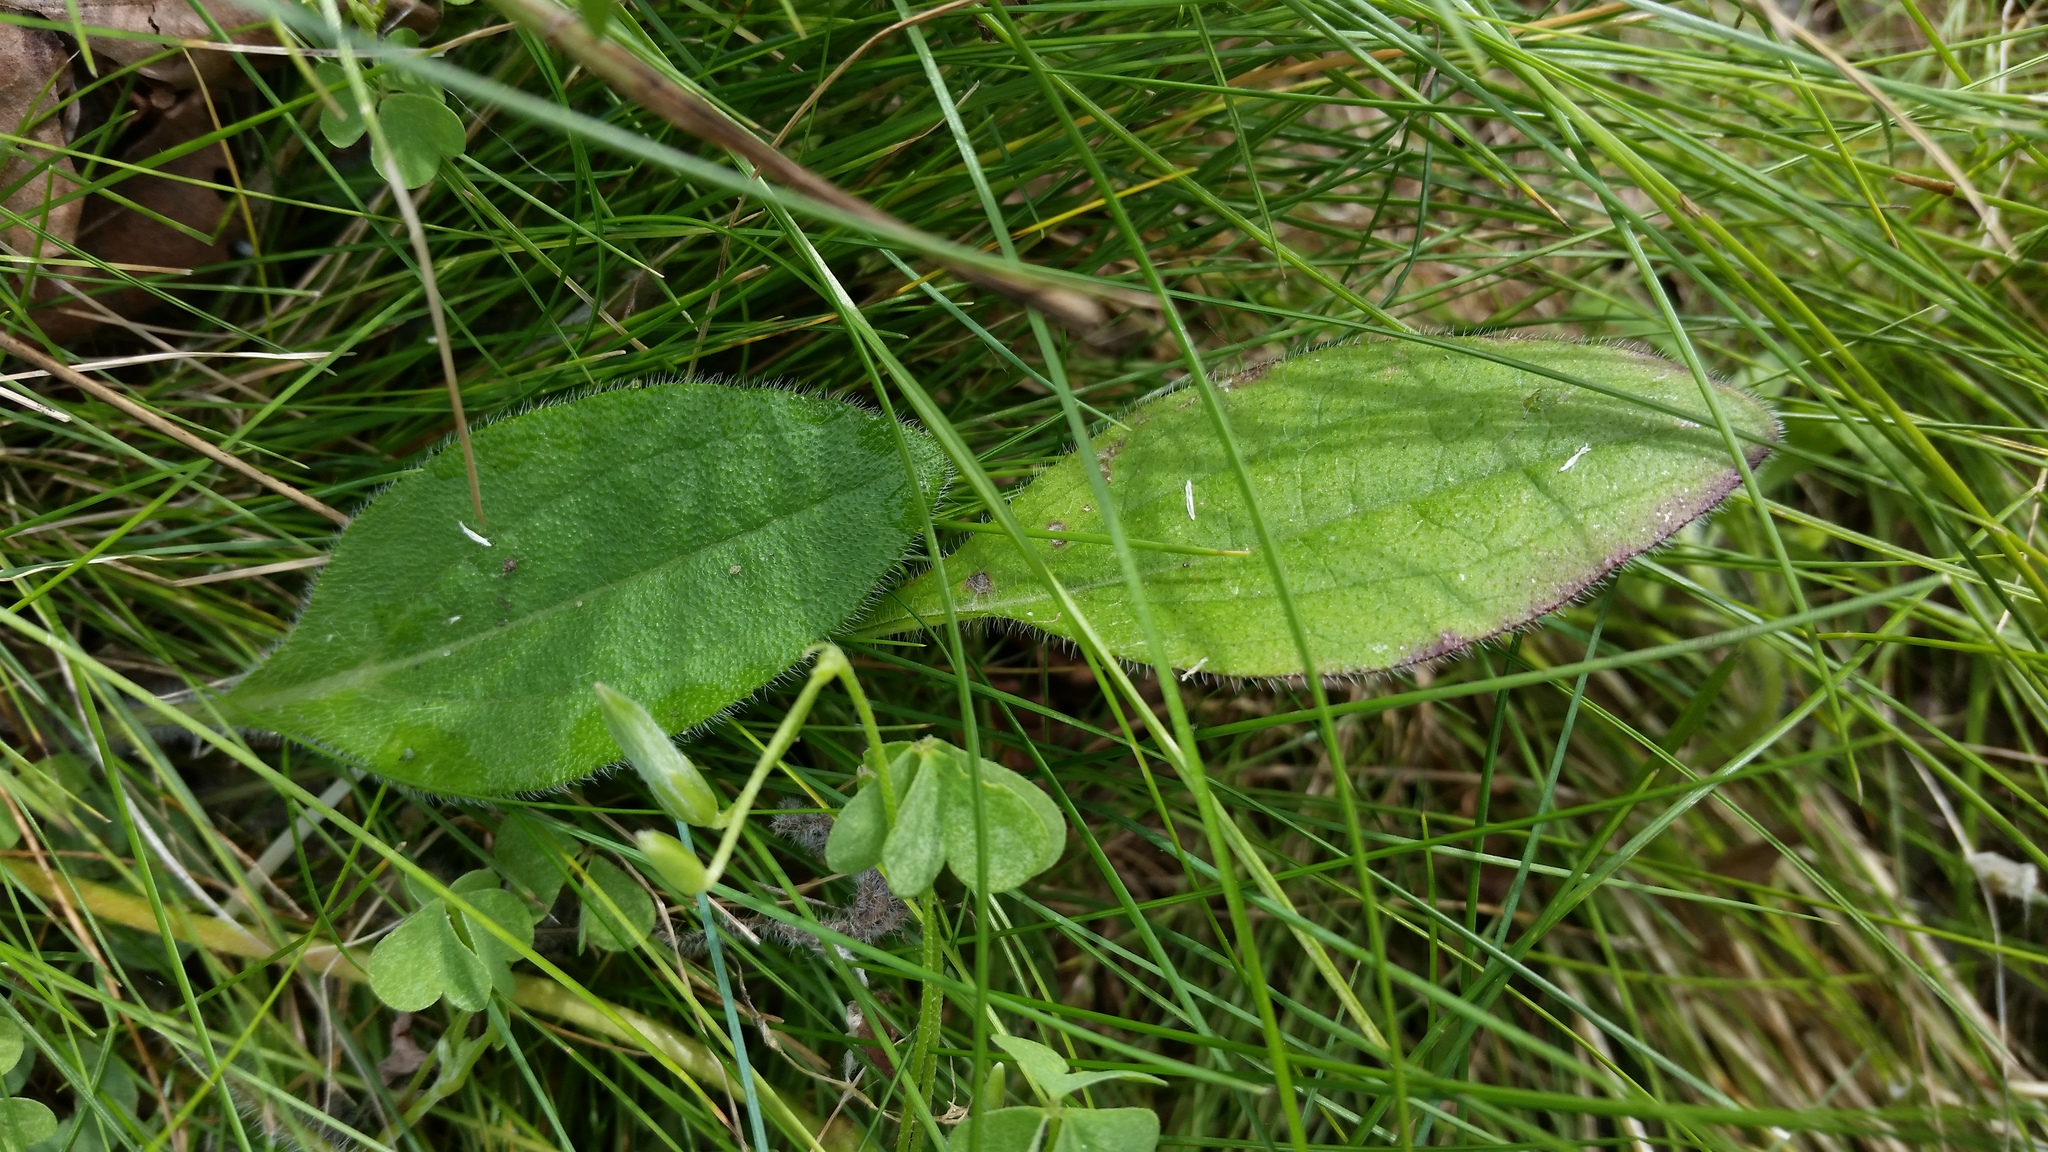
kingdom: Plantae
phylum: Tracheophyta
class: Magnoliopsida
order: Lamiales
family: Plantaginaceae
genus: Plantago
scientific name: Plantago virginica
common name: Hoary plantain
